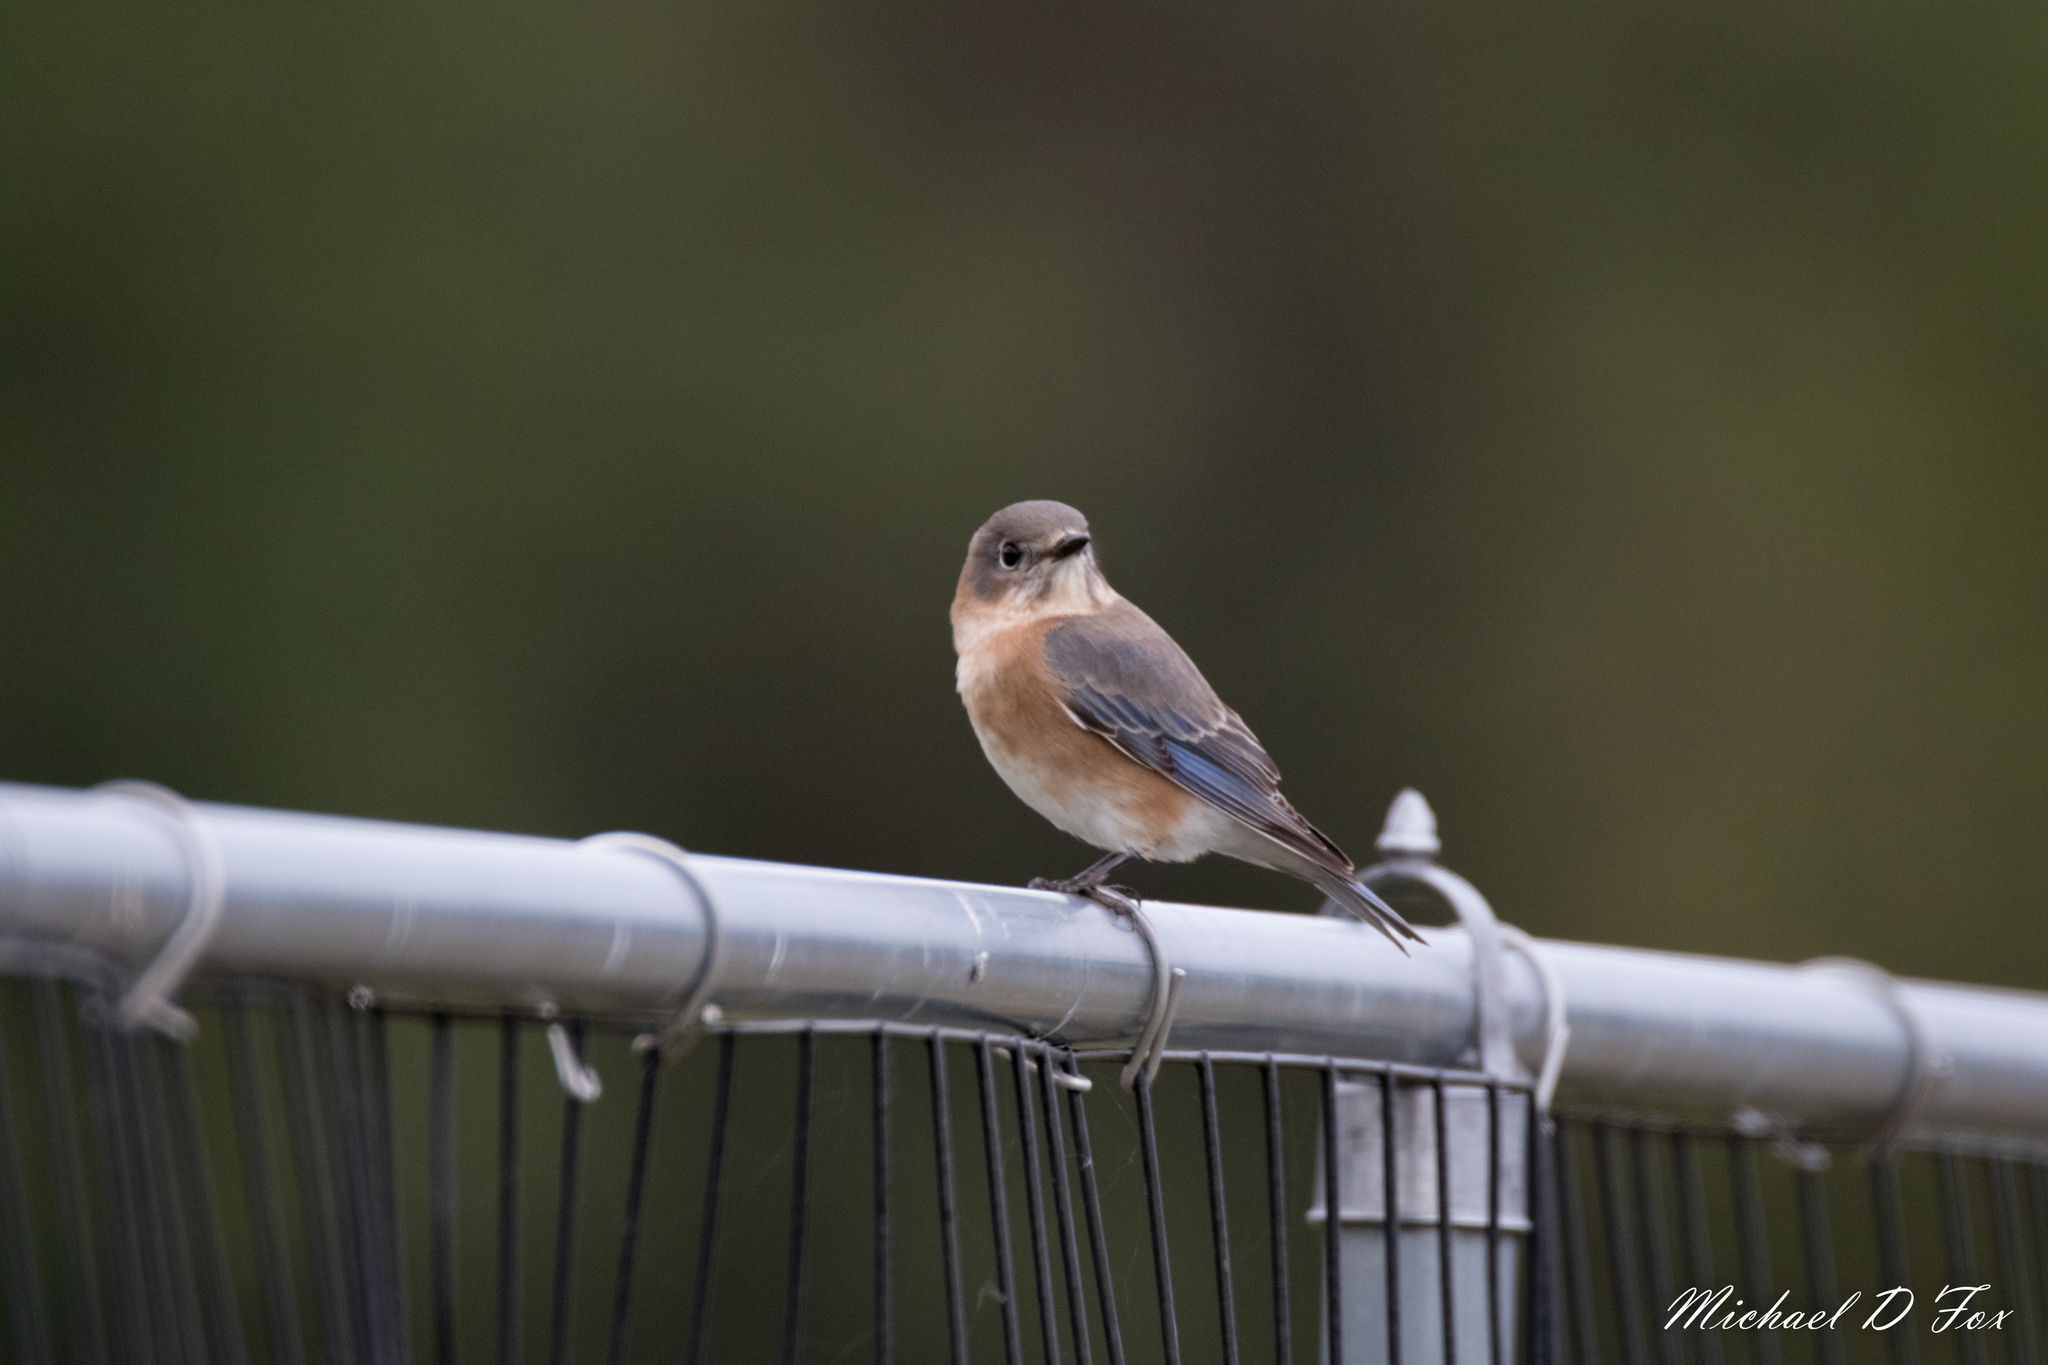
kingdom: Animalia
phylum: Chordata
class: Aves
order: Passeriformes
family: Turdidae
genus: Sialia
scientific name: Sialia sialis
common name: Eastern bluebird
